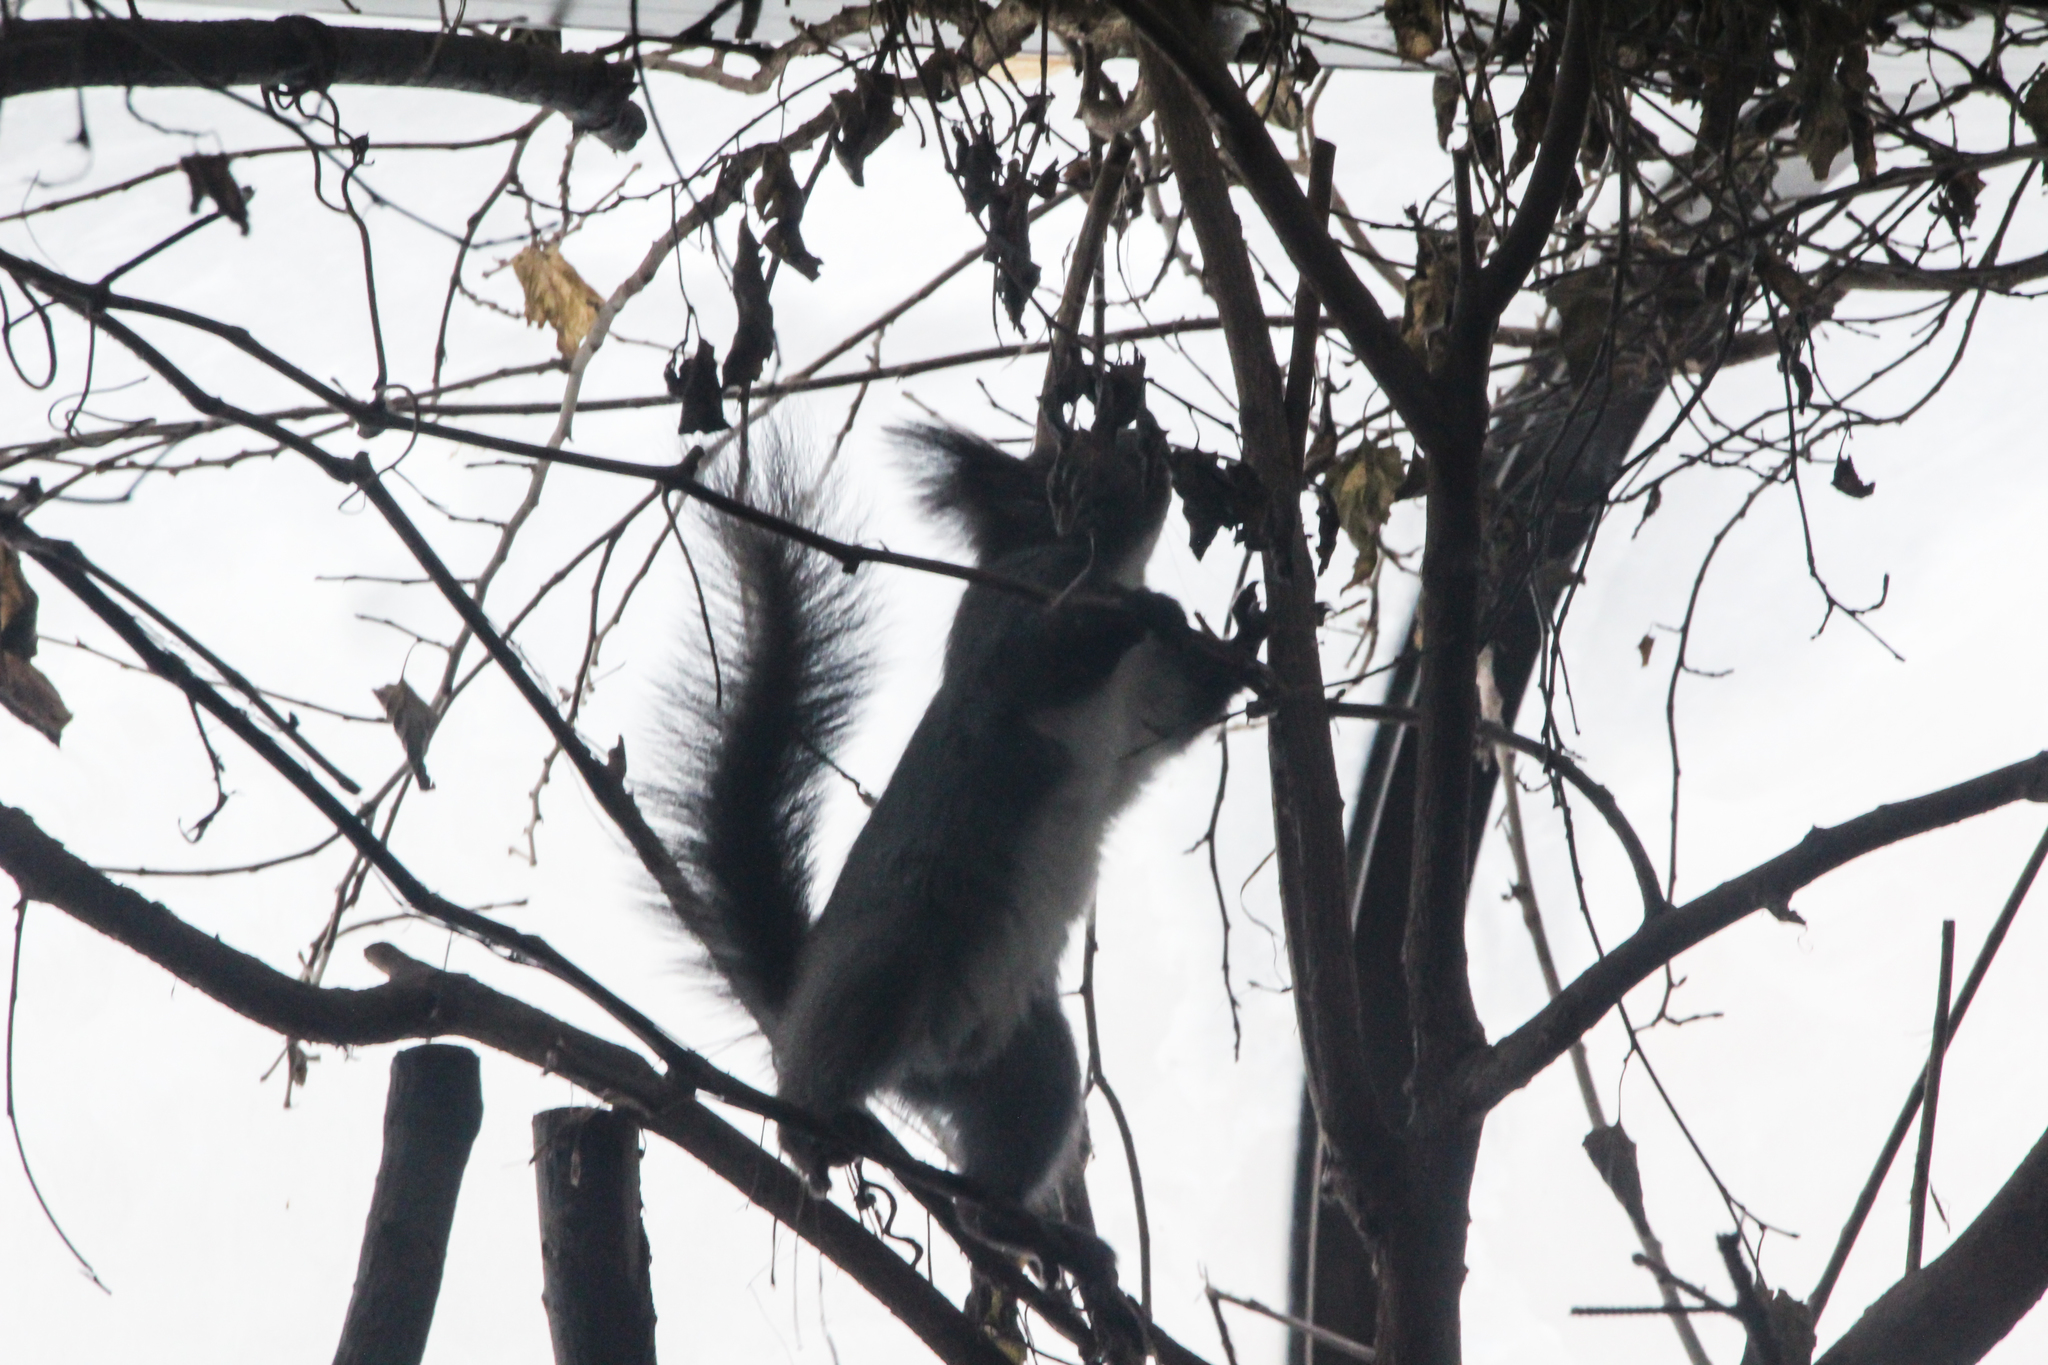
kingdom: Animalia
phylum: Chordata
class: Mammalia
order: Rodentia
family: Sciuridae
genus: Sciurus
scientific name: Sciurus vulgaris
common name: Eurasian red squirrel
